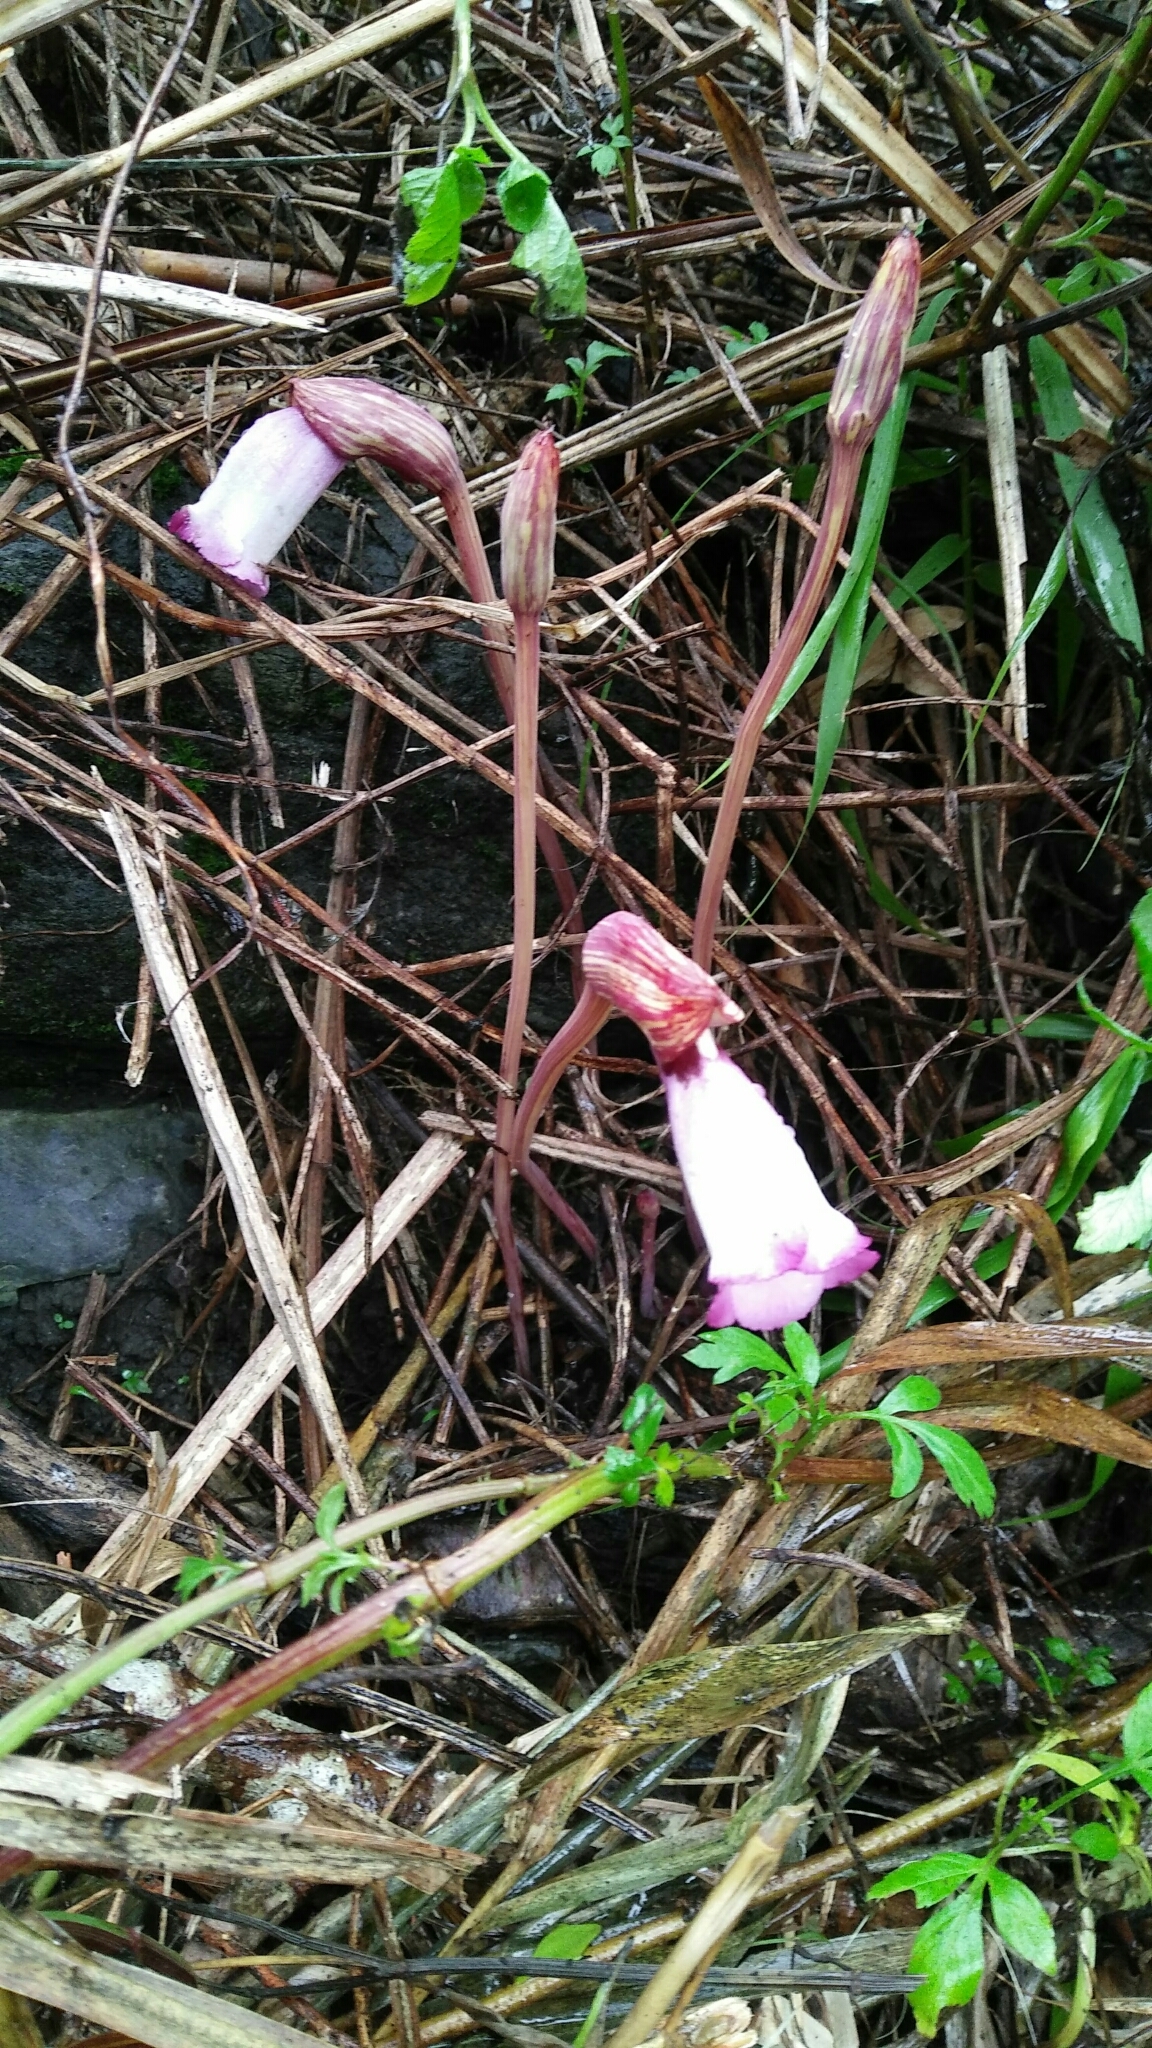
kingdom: Plantae
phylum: Tracheophyta
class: Magnoliopsida
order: Lamiales
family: Orobanchaceae
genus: Aeginetia
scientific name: Aeginetia indica
